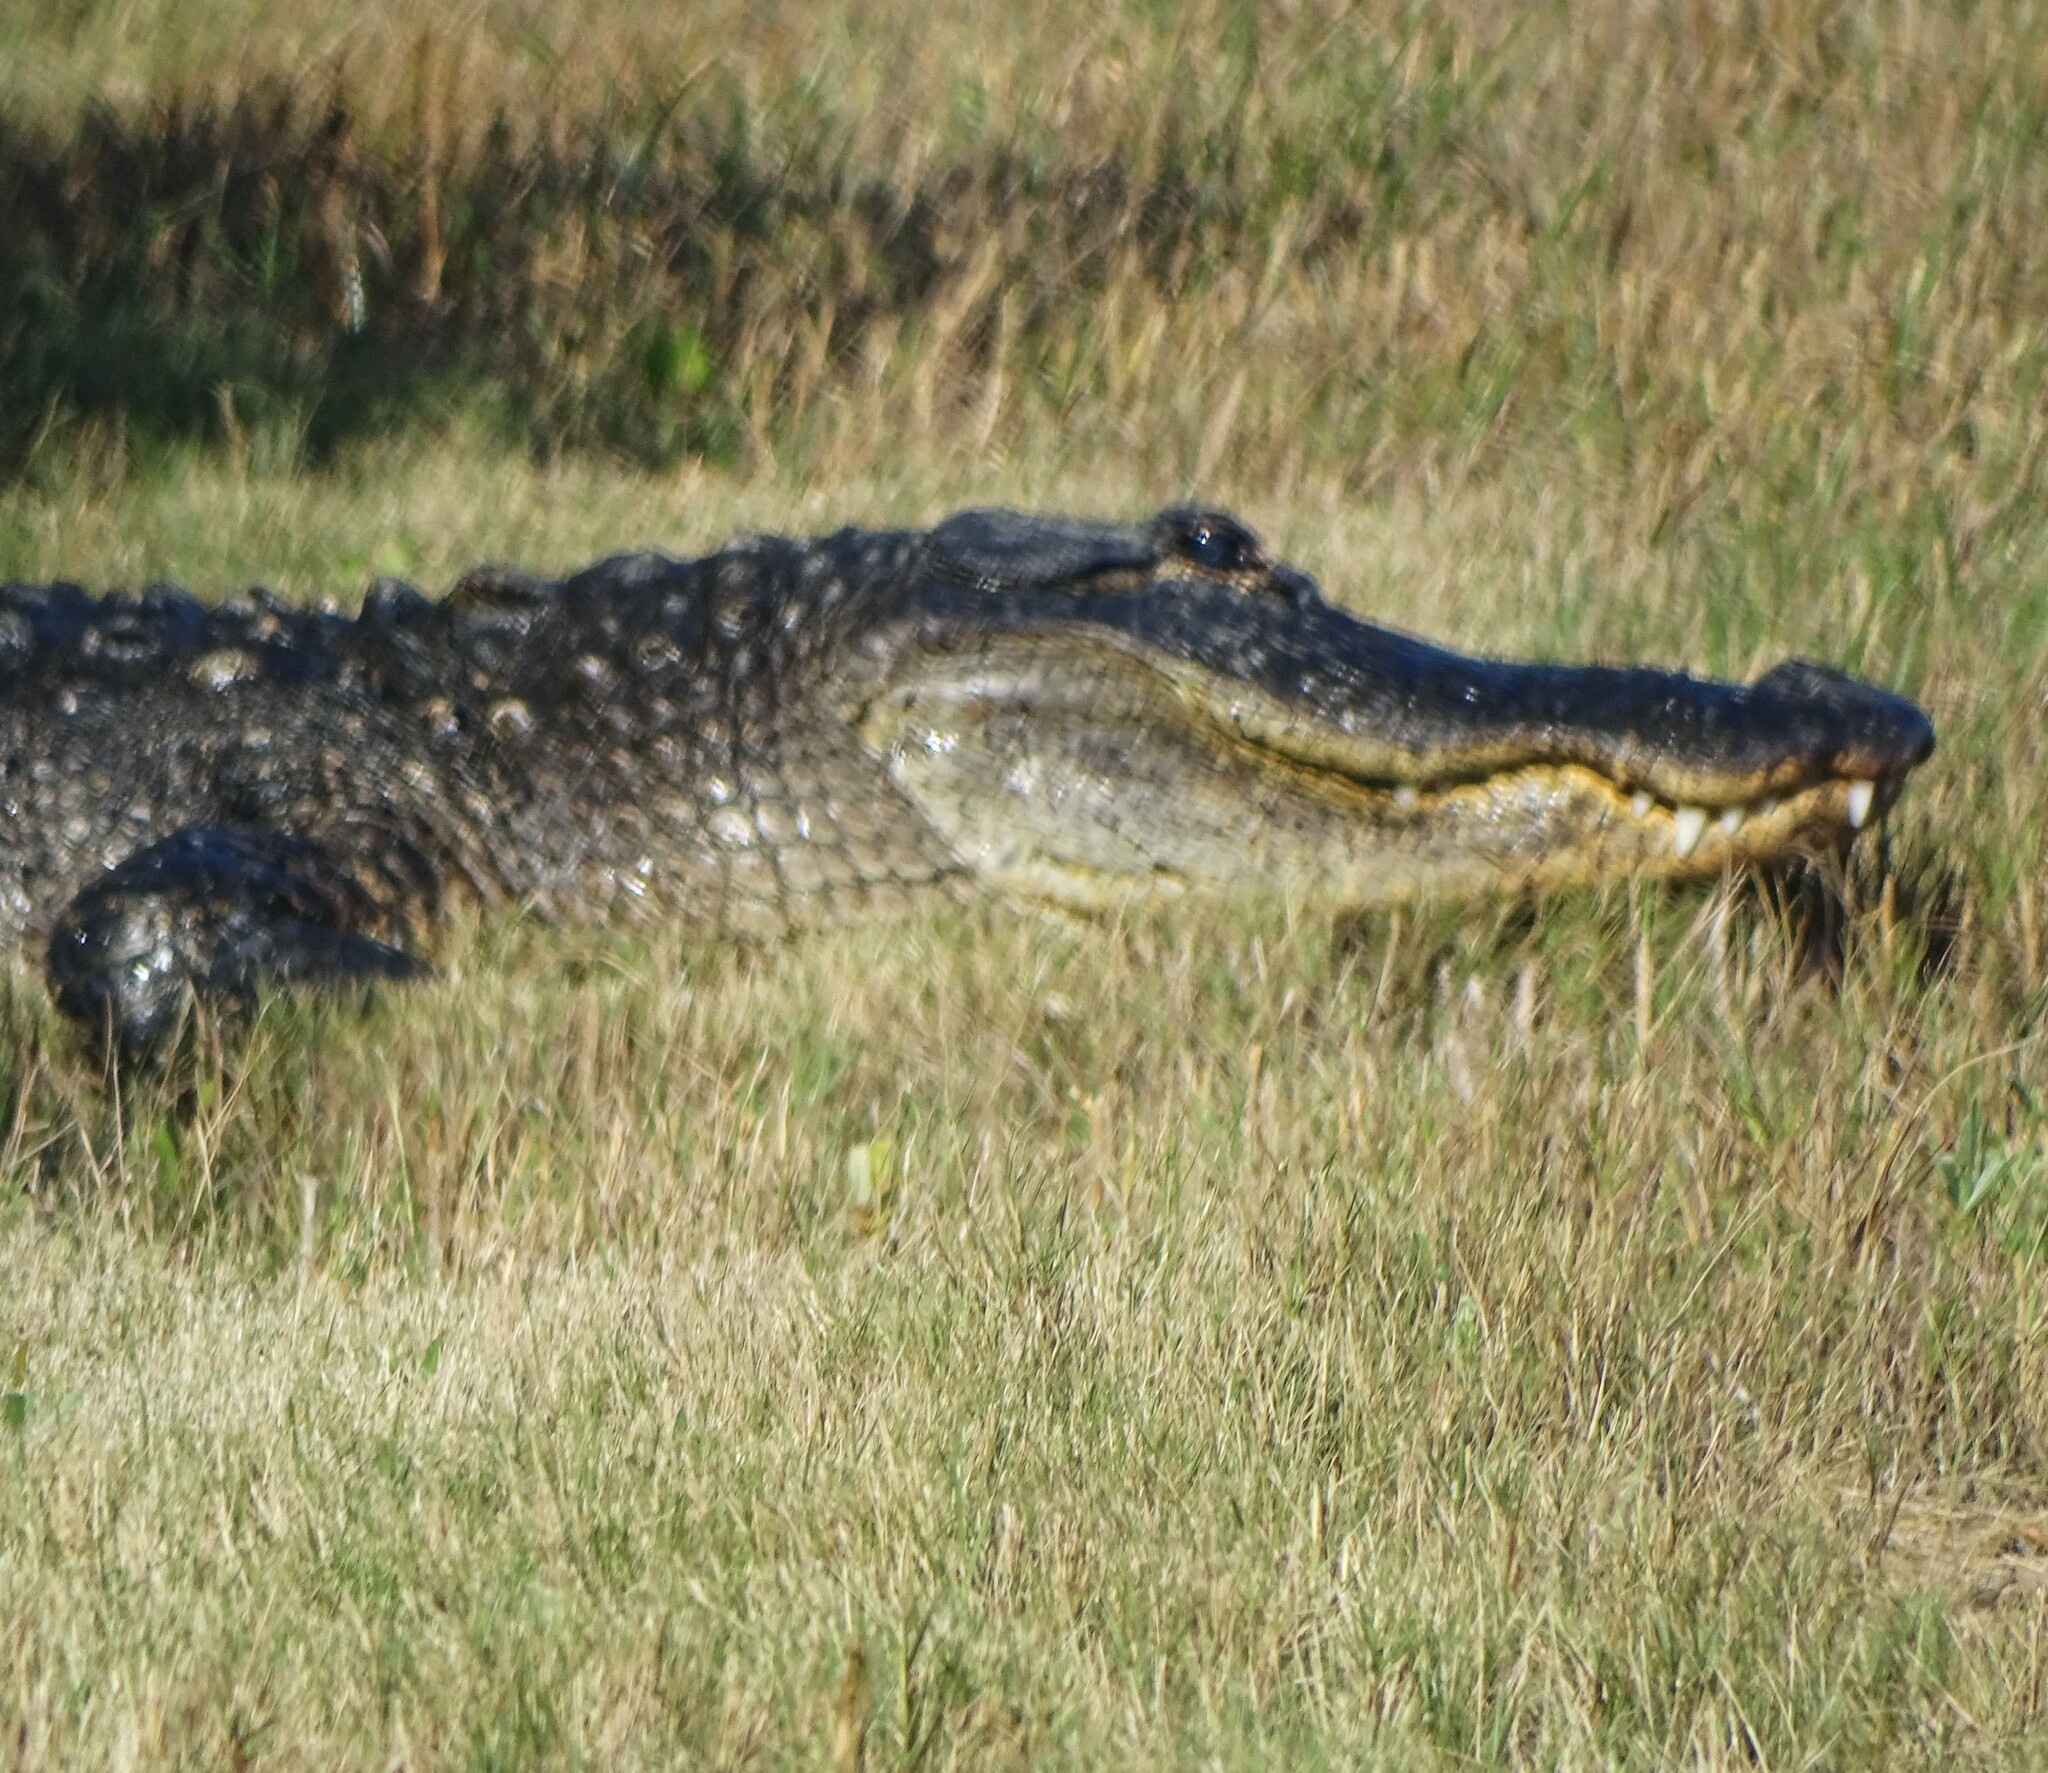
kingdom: Animalia
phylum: Chordata
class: Crocodylia
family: Alligatoridae
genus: Alligator
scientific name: Alligator mississippiensis
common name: American alligator
